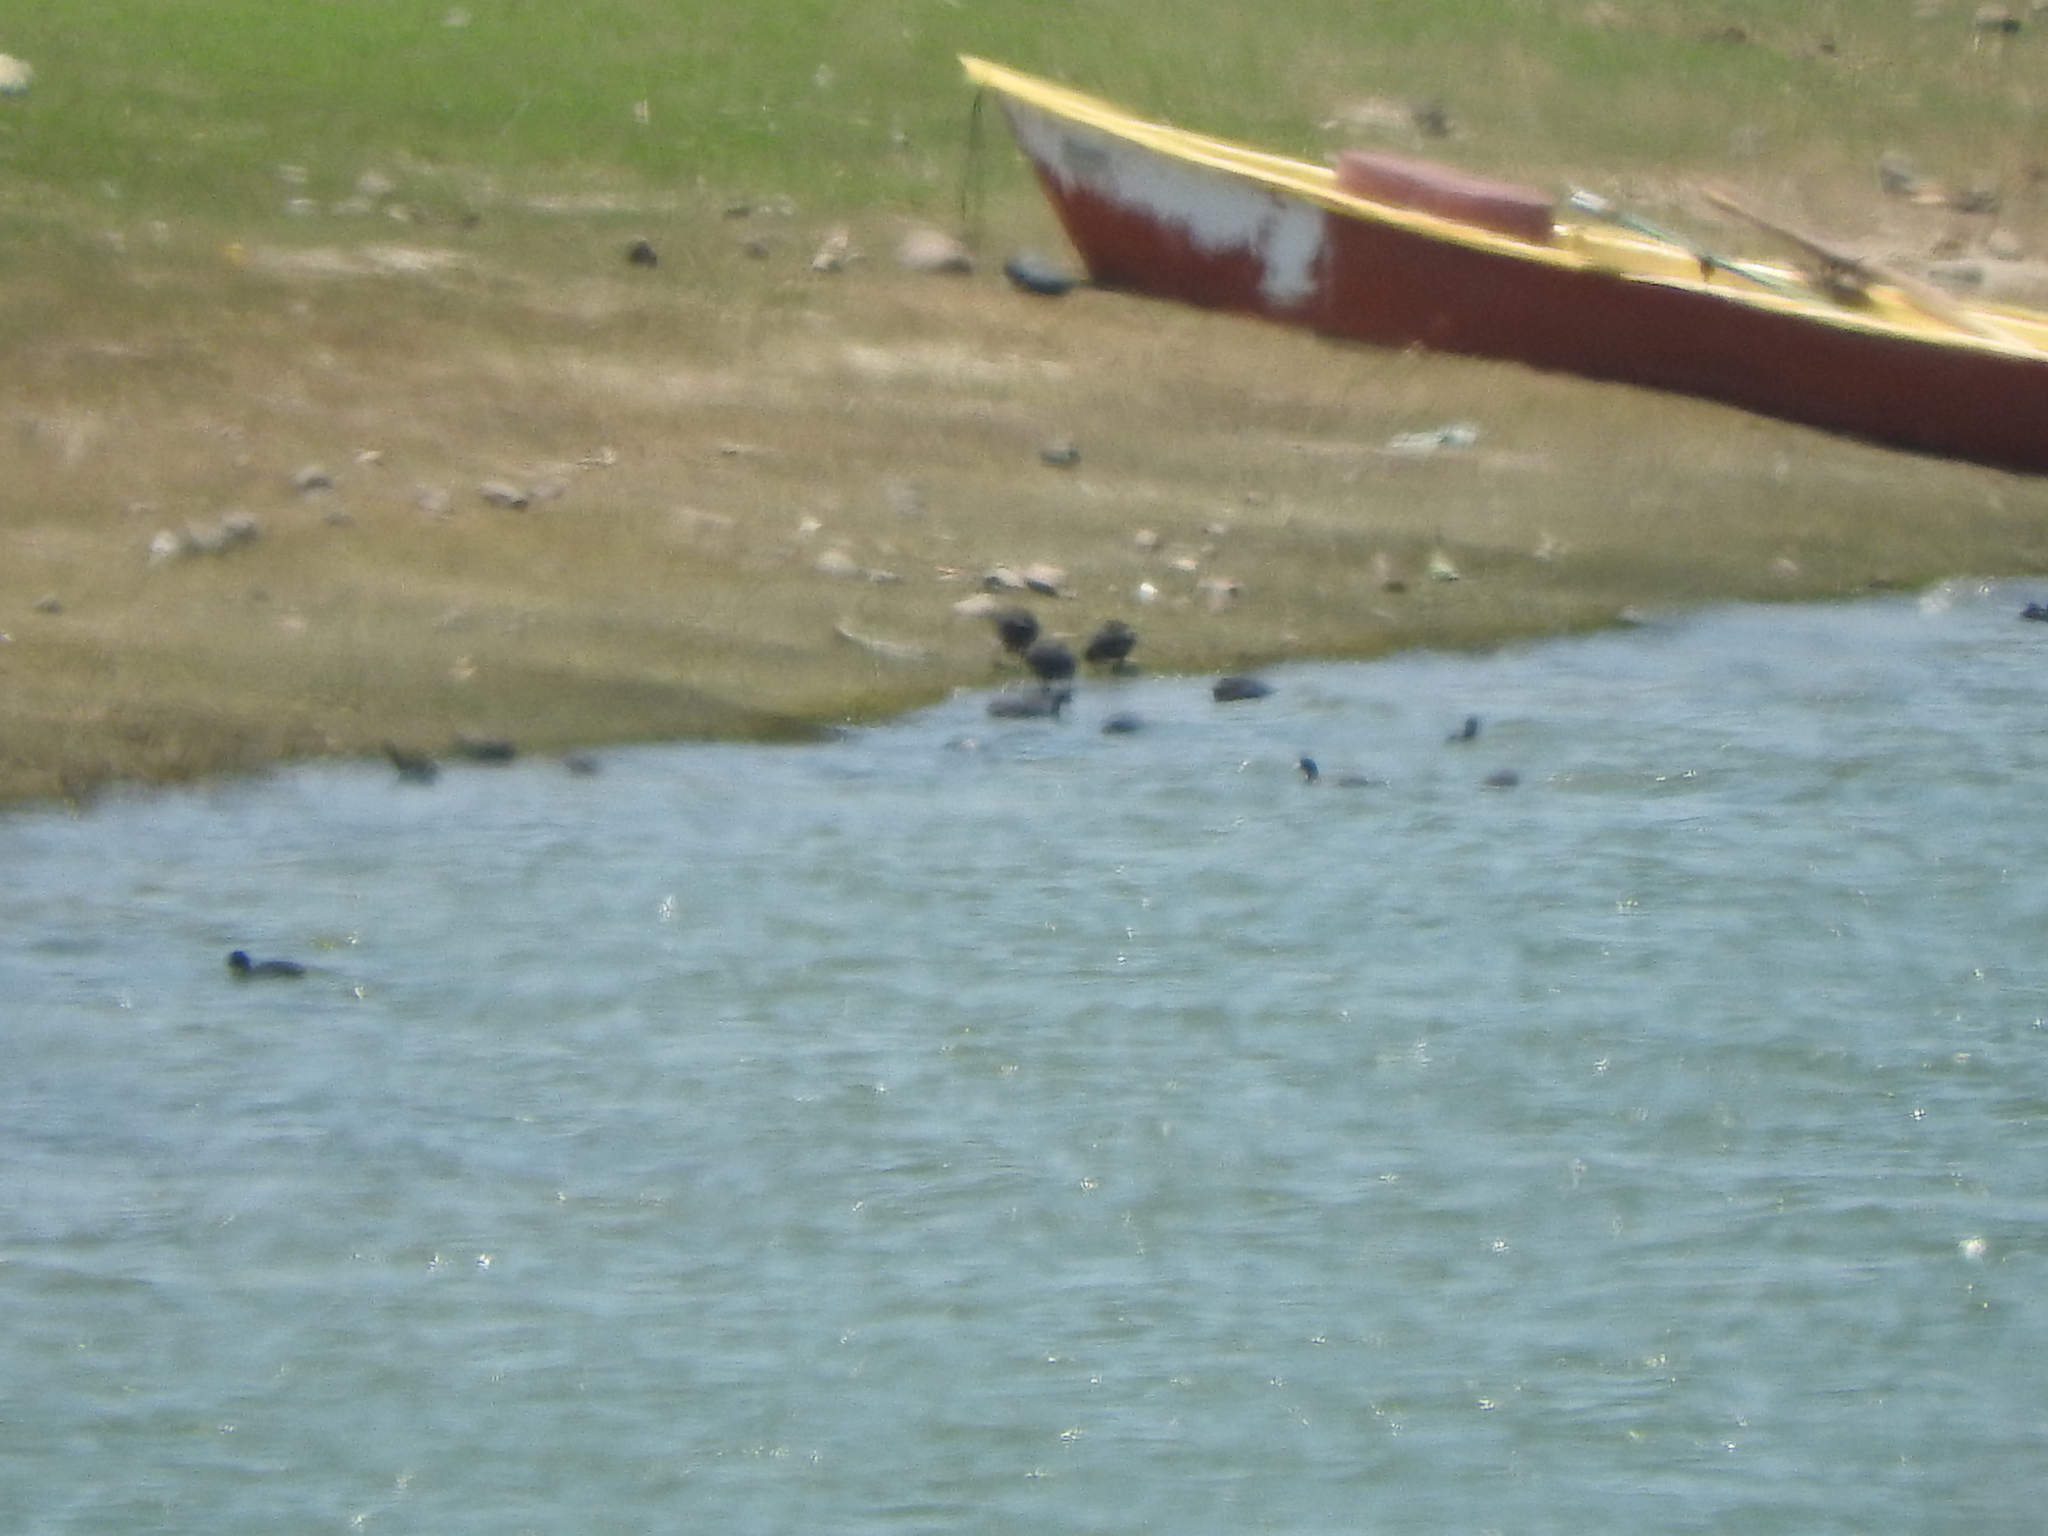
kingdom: Animalia
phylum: Chordata
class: Aves
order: Gruiformes
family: Rallidae
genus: Fulica
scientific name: Fulica americana
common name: American coot
